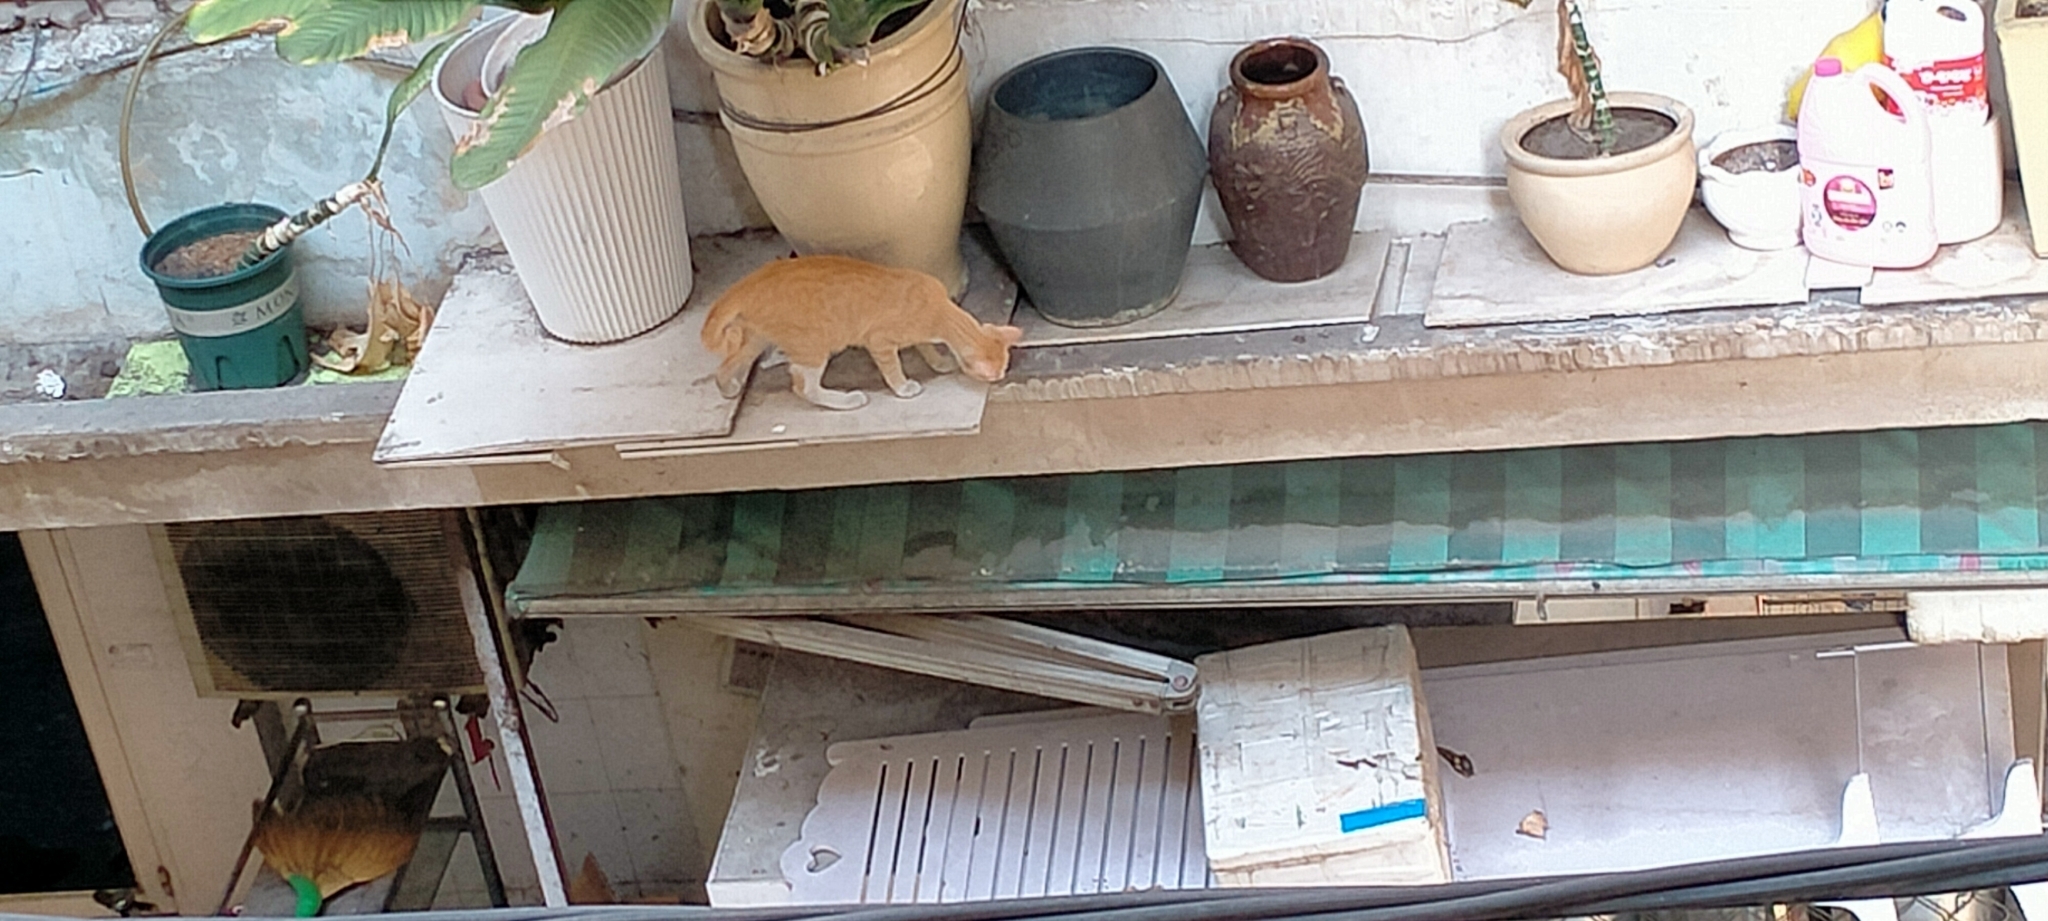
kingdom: Animalia
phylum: Chordata
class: Mammalia
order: Carnivora
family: Felidae
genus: Felis
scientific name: Felis catus
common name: Domestic cat
